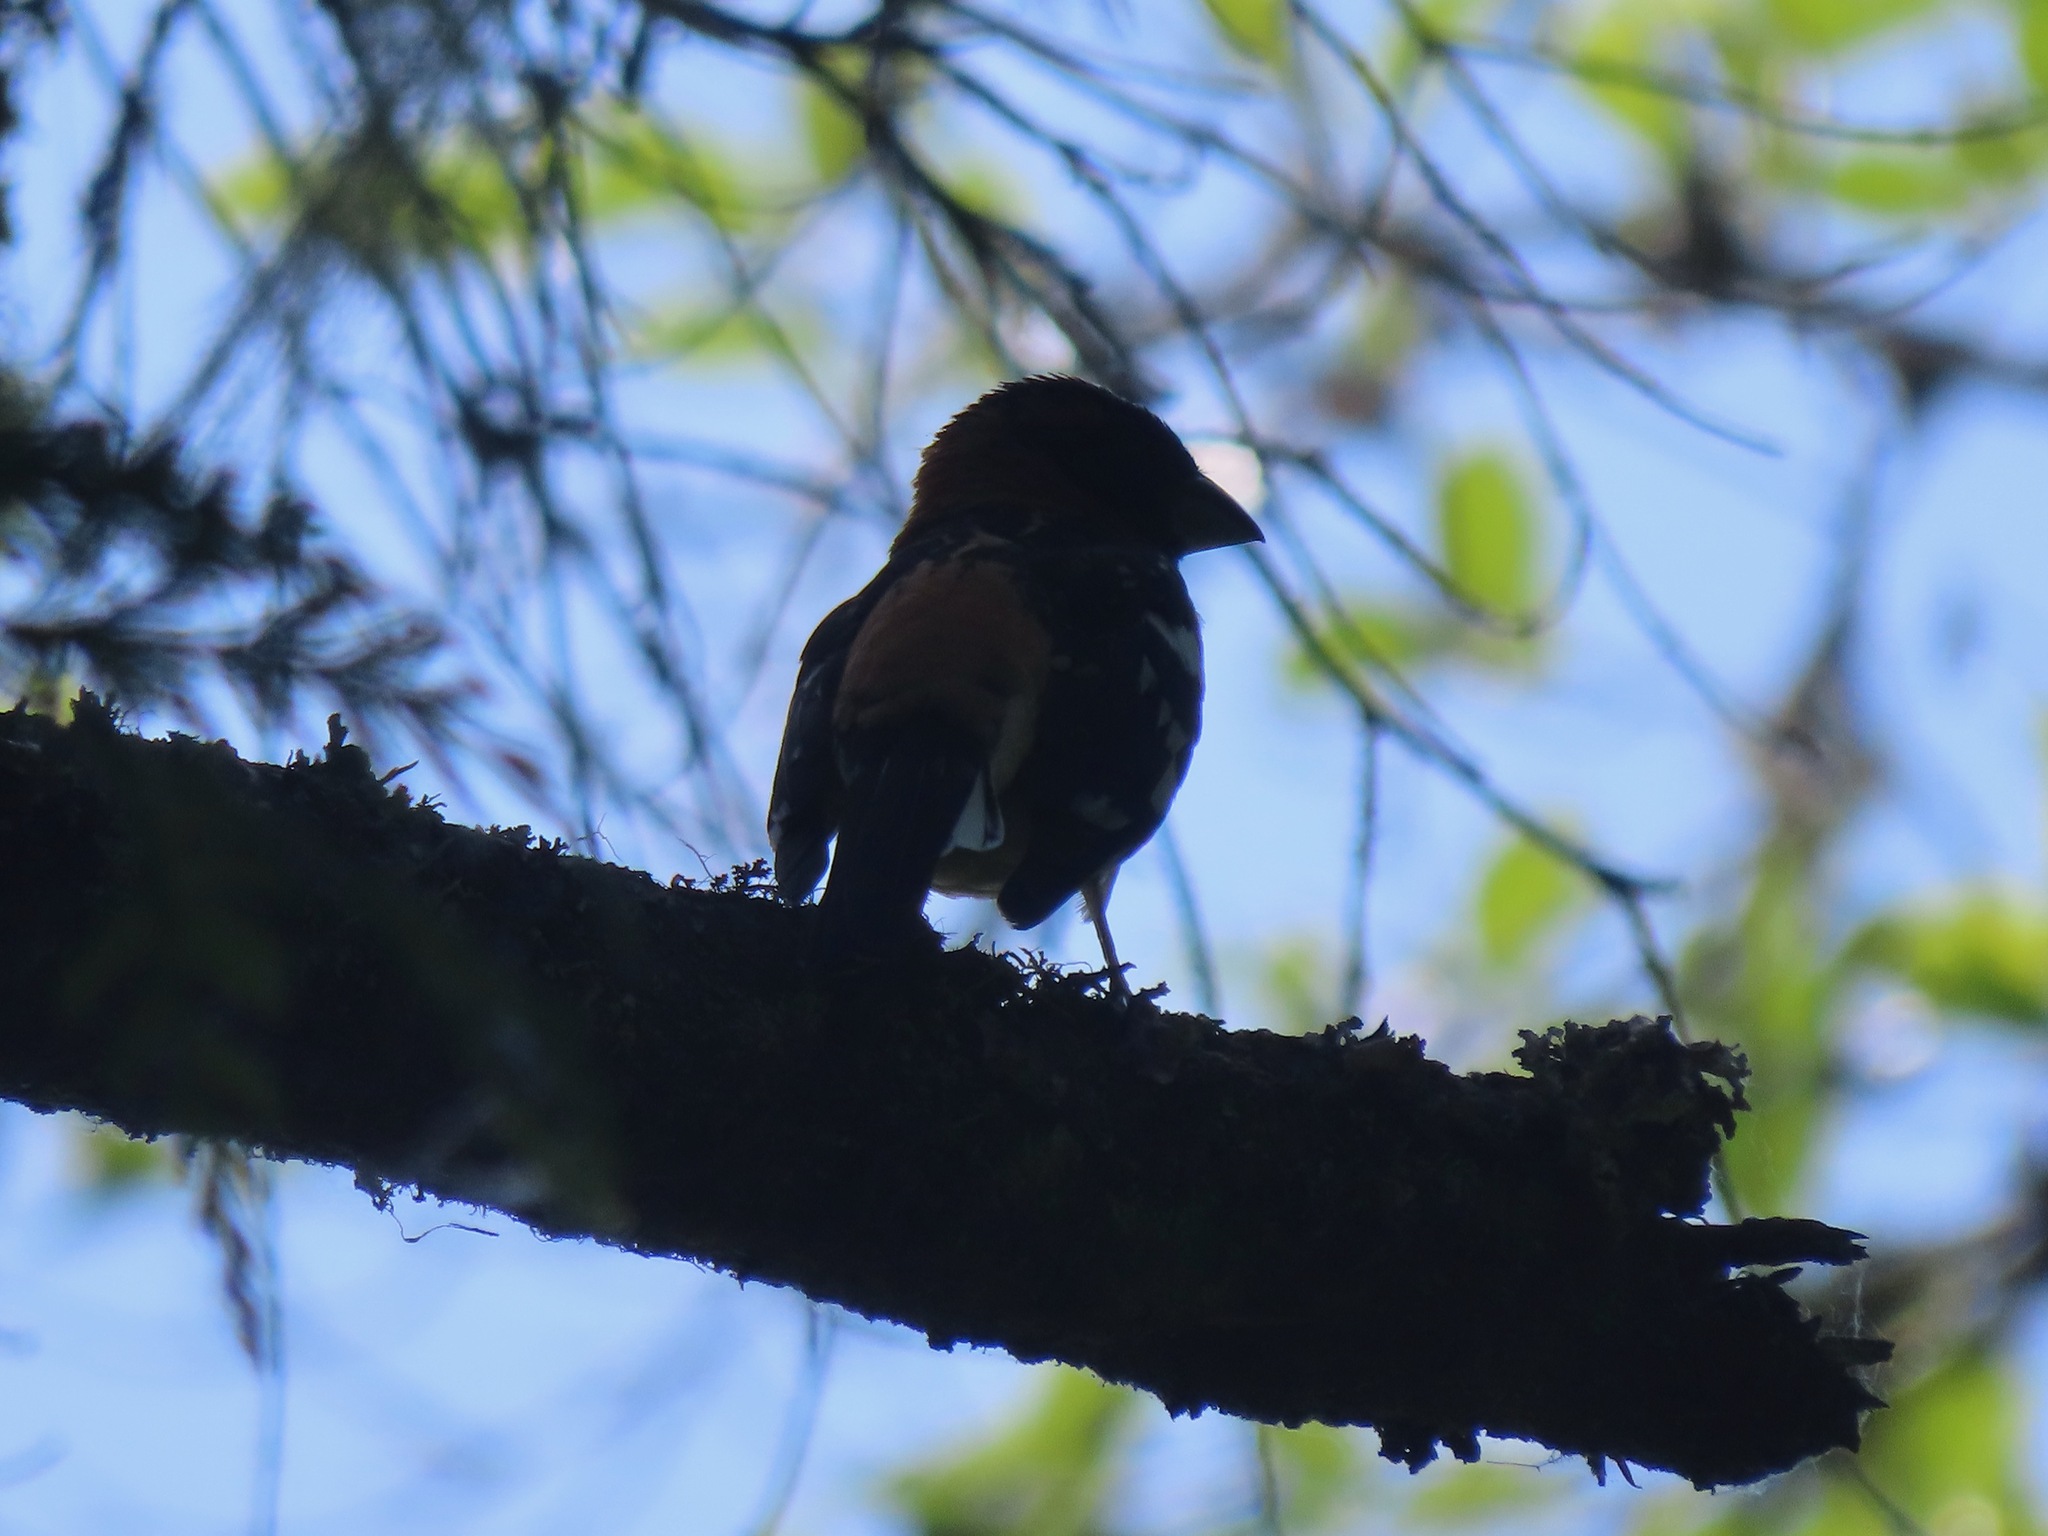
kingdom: Animalia
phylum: Chordata
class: Aves
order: Passeriformes
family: Cardinalidae
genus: Pheucticus
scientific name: Pheucticus melanocephalus
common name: Black-headed grosbeak
